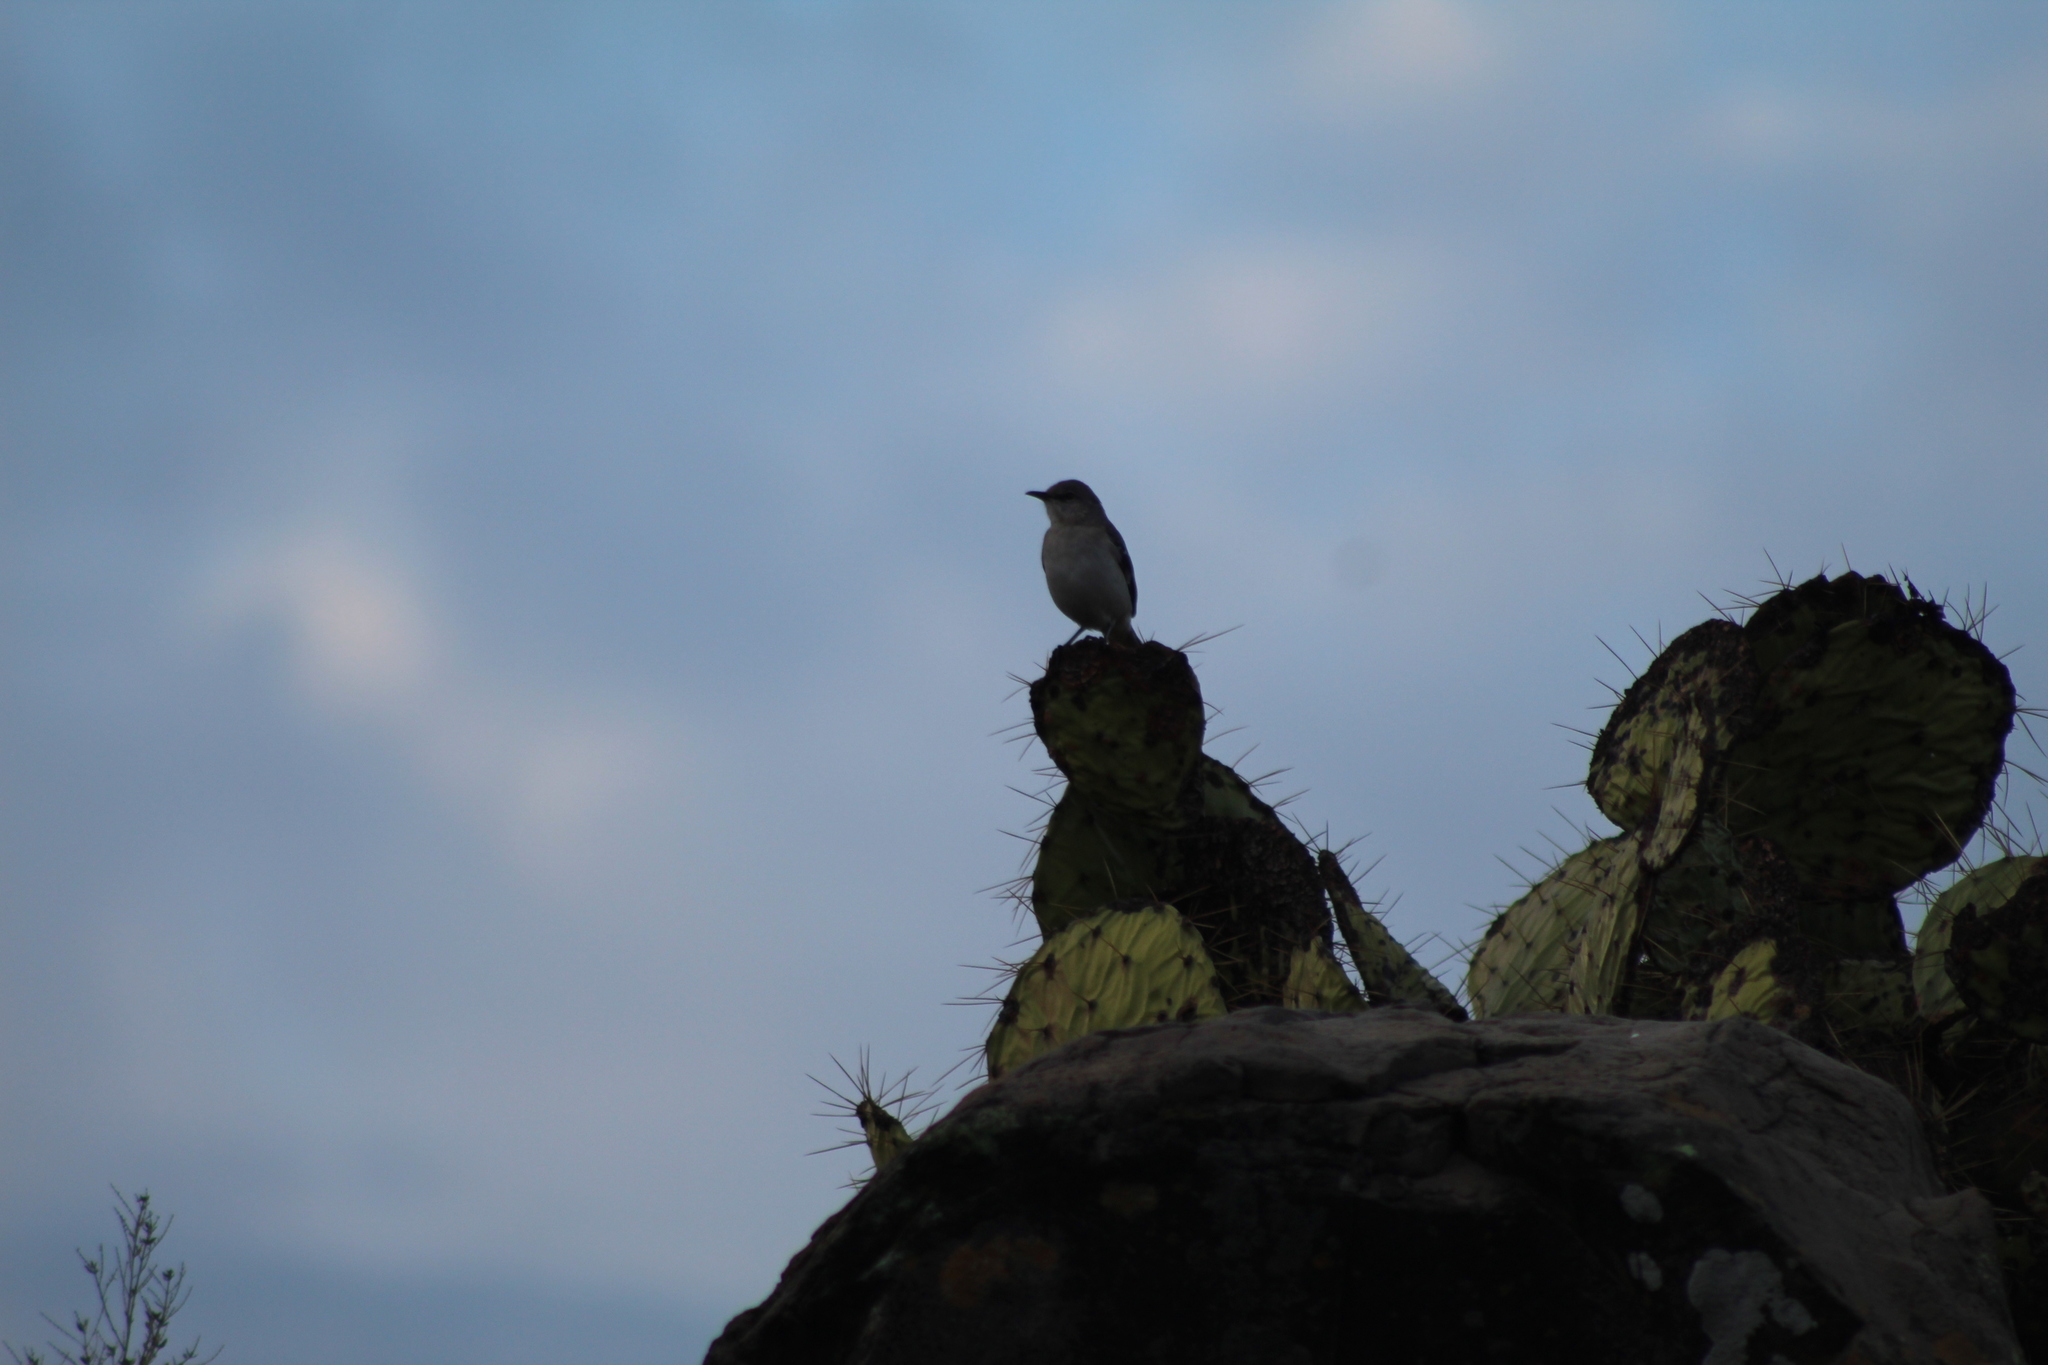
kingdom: Animalia
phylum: Chordata
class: Aves
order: Passeriformes
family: Mimidae
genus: Mimus
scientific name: Mimus polyglottos
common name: Northern mockingbird
